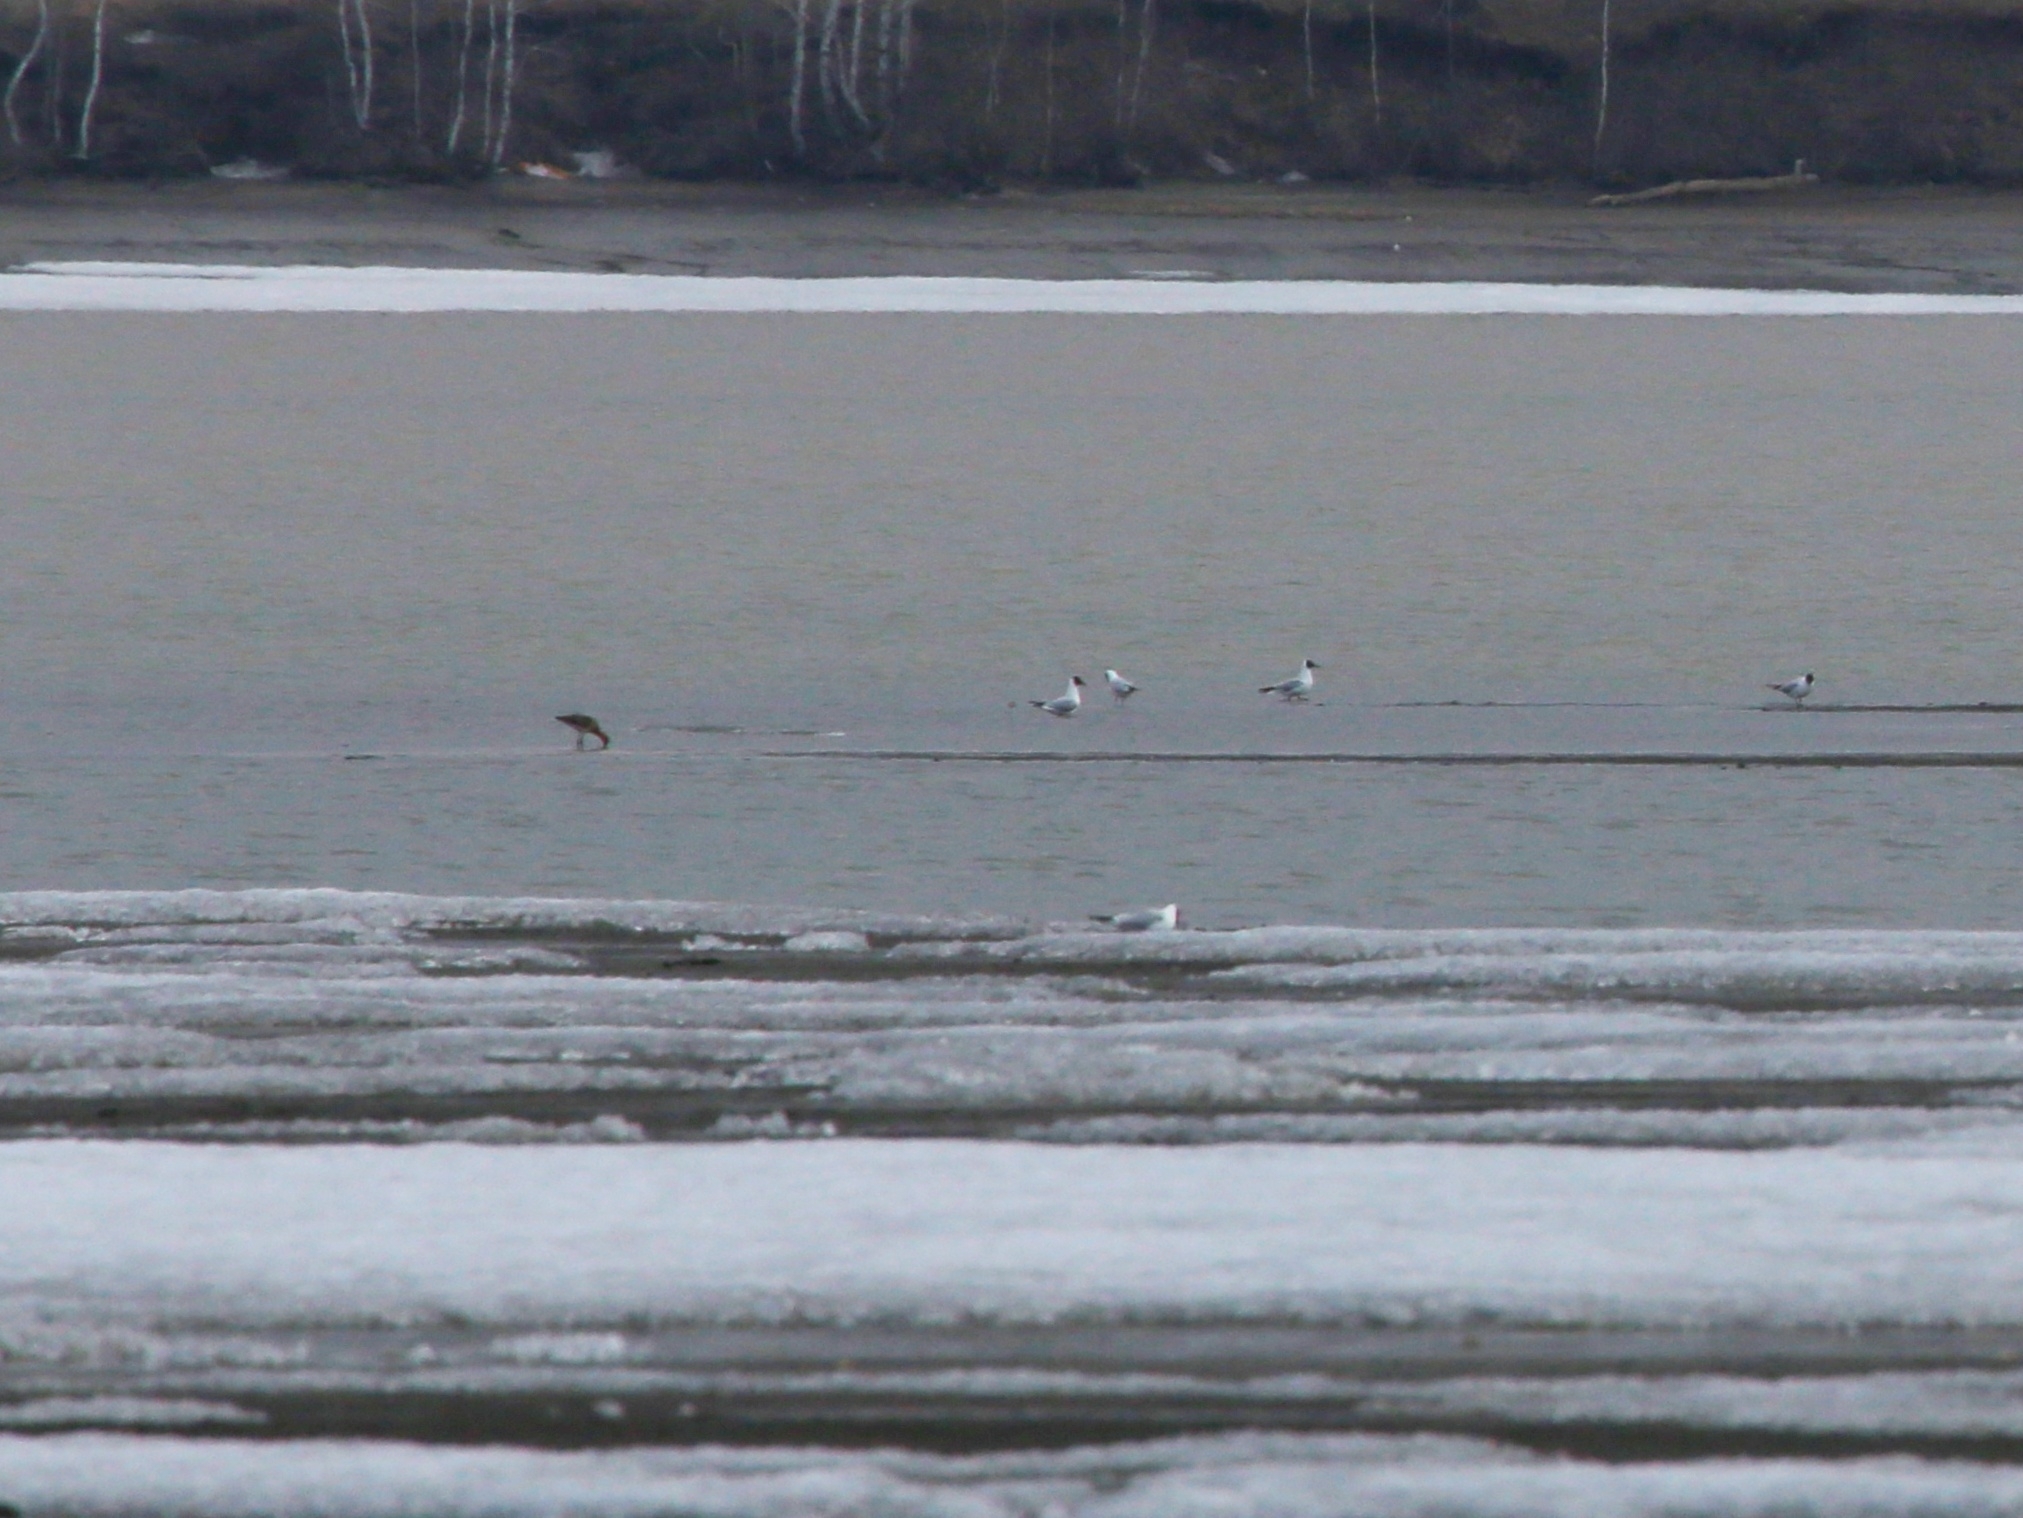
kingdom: Animalia
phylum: Chordata
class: Aves
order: Charadriiformes
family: Laridae
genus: Chroicocephalus
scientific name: Chroicocephalus ridibundus
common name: Black-headed gull
